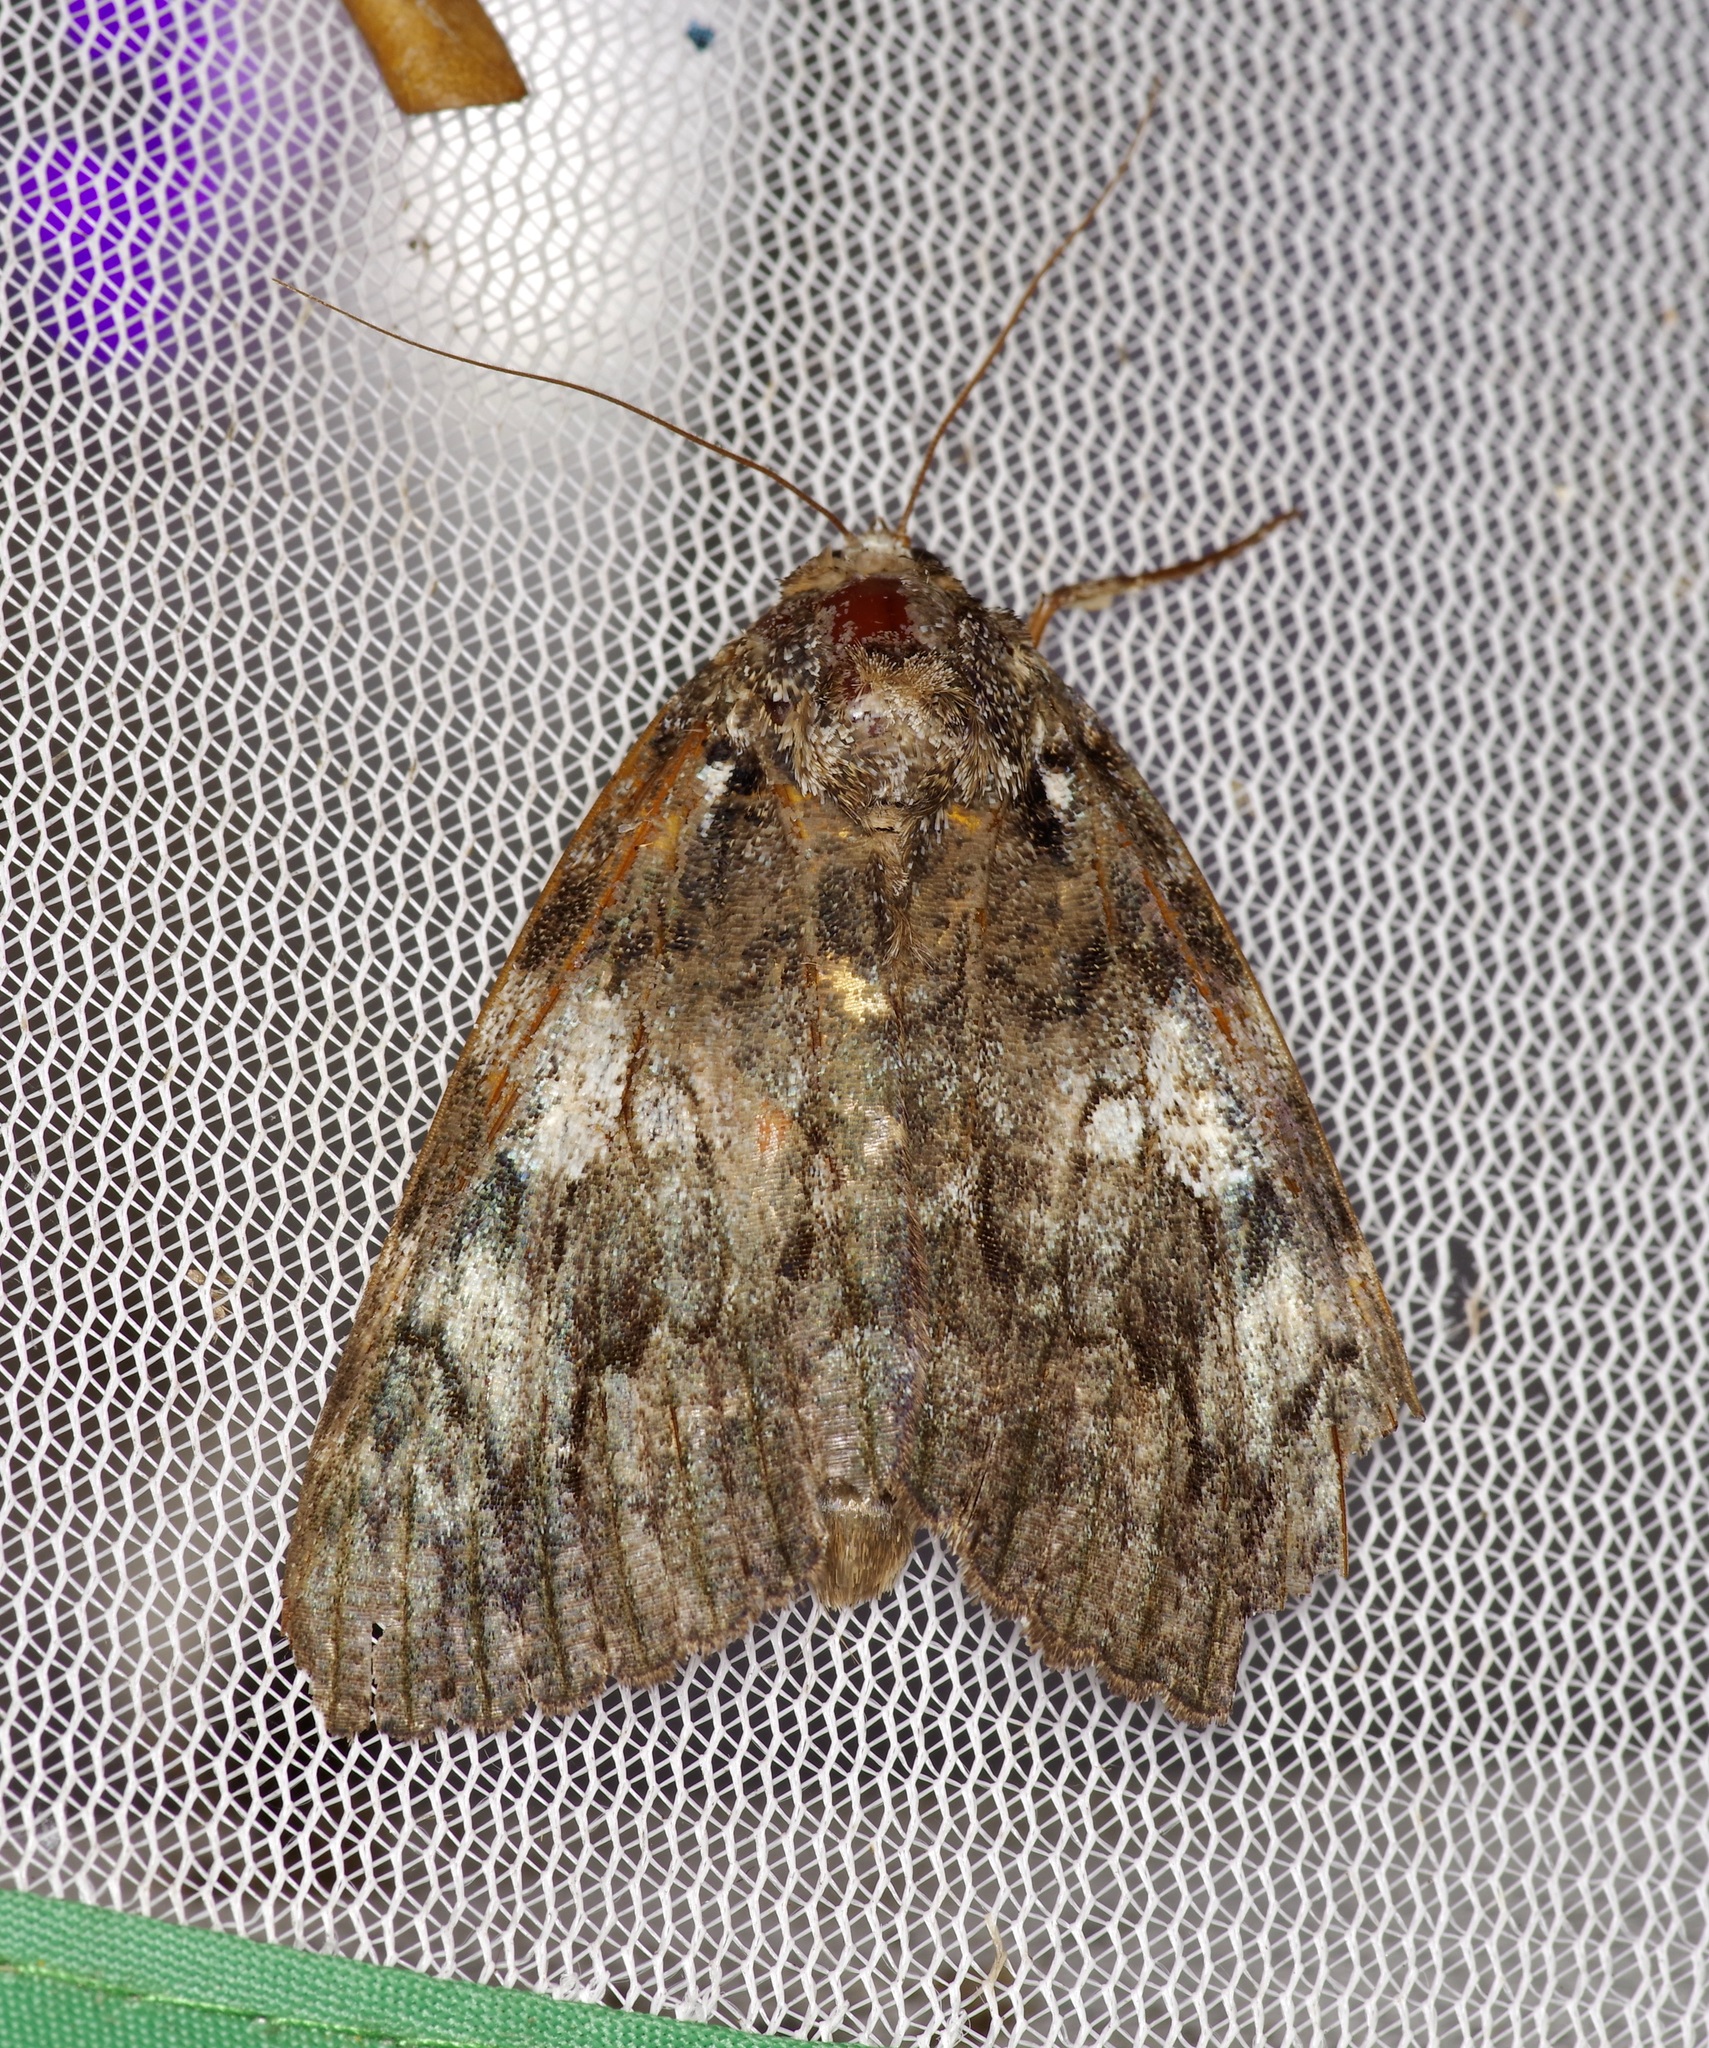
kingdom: Animalia
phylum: Arthropoda
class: Insecta
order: Lepidoptera
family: Erebidae
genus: Catocala
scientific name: Catocala ilia
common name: Ilia underwing
